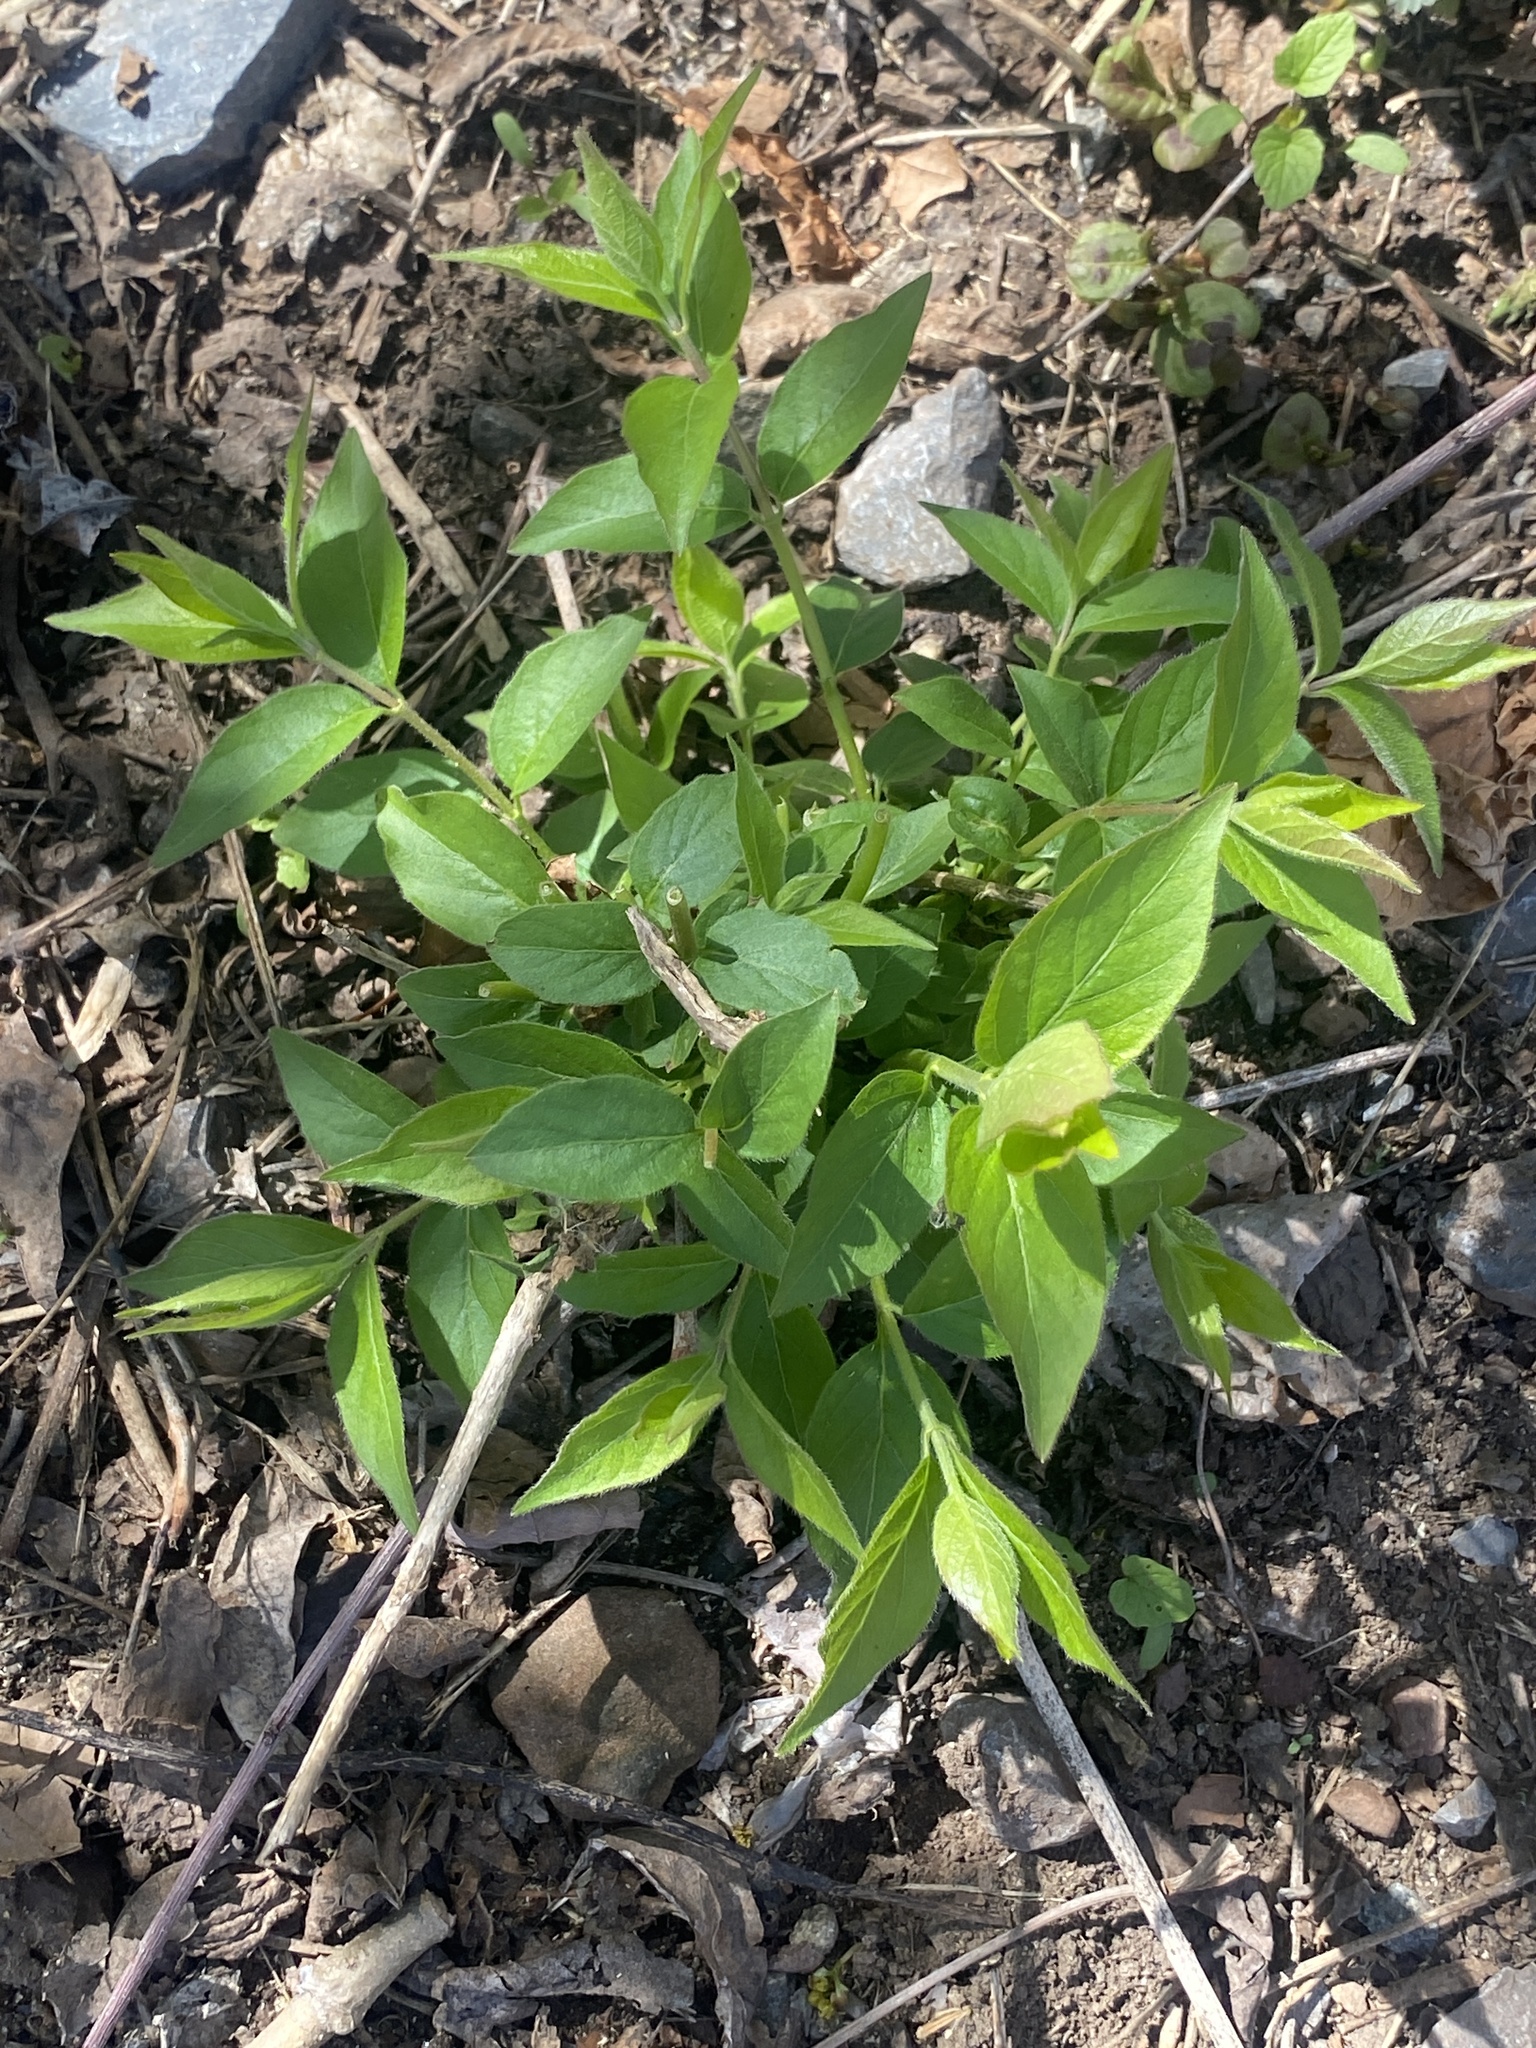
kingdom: Plantae
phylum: Tracheophyta
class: Magnoliopsida
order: Dipsacales
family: Caprifoliaceae
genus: Lonicera
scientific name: Lonicera maackii
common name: Amur honeysuckle
